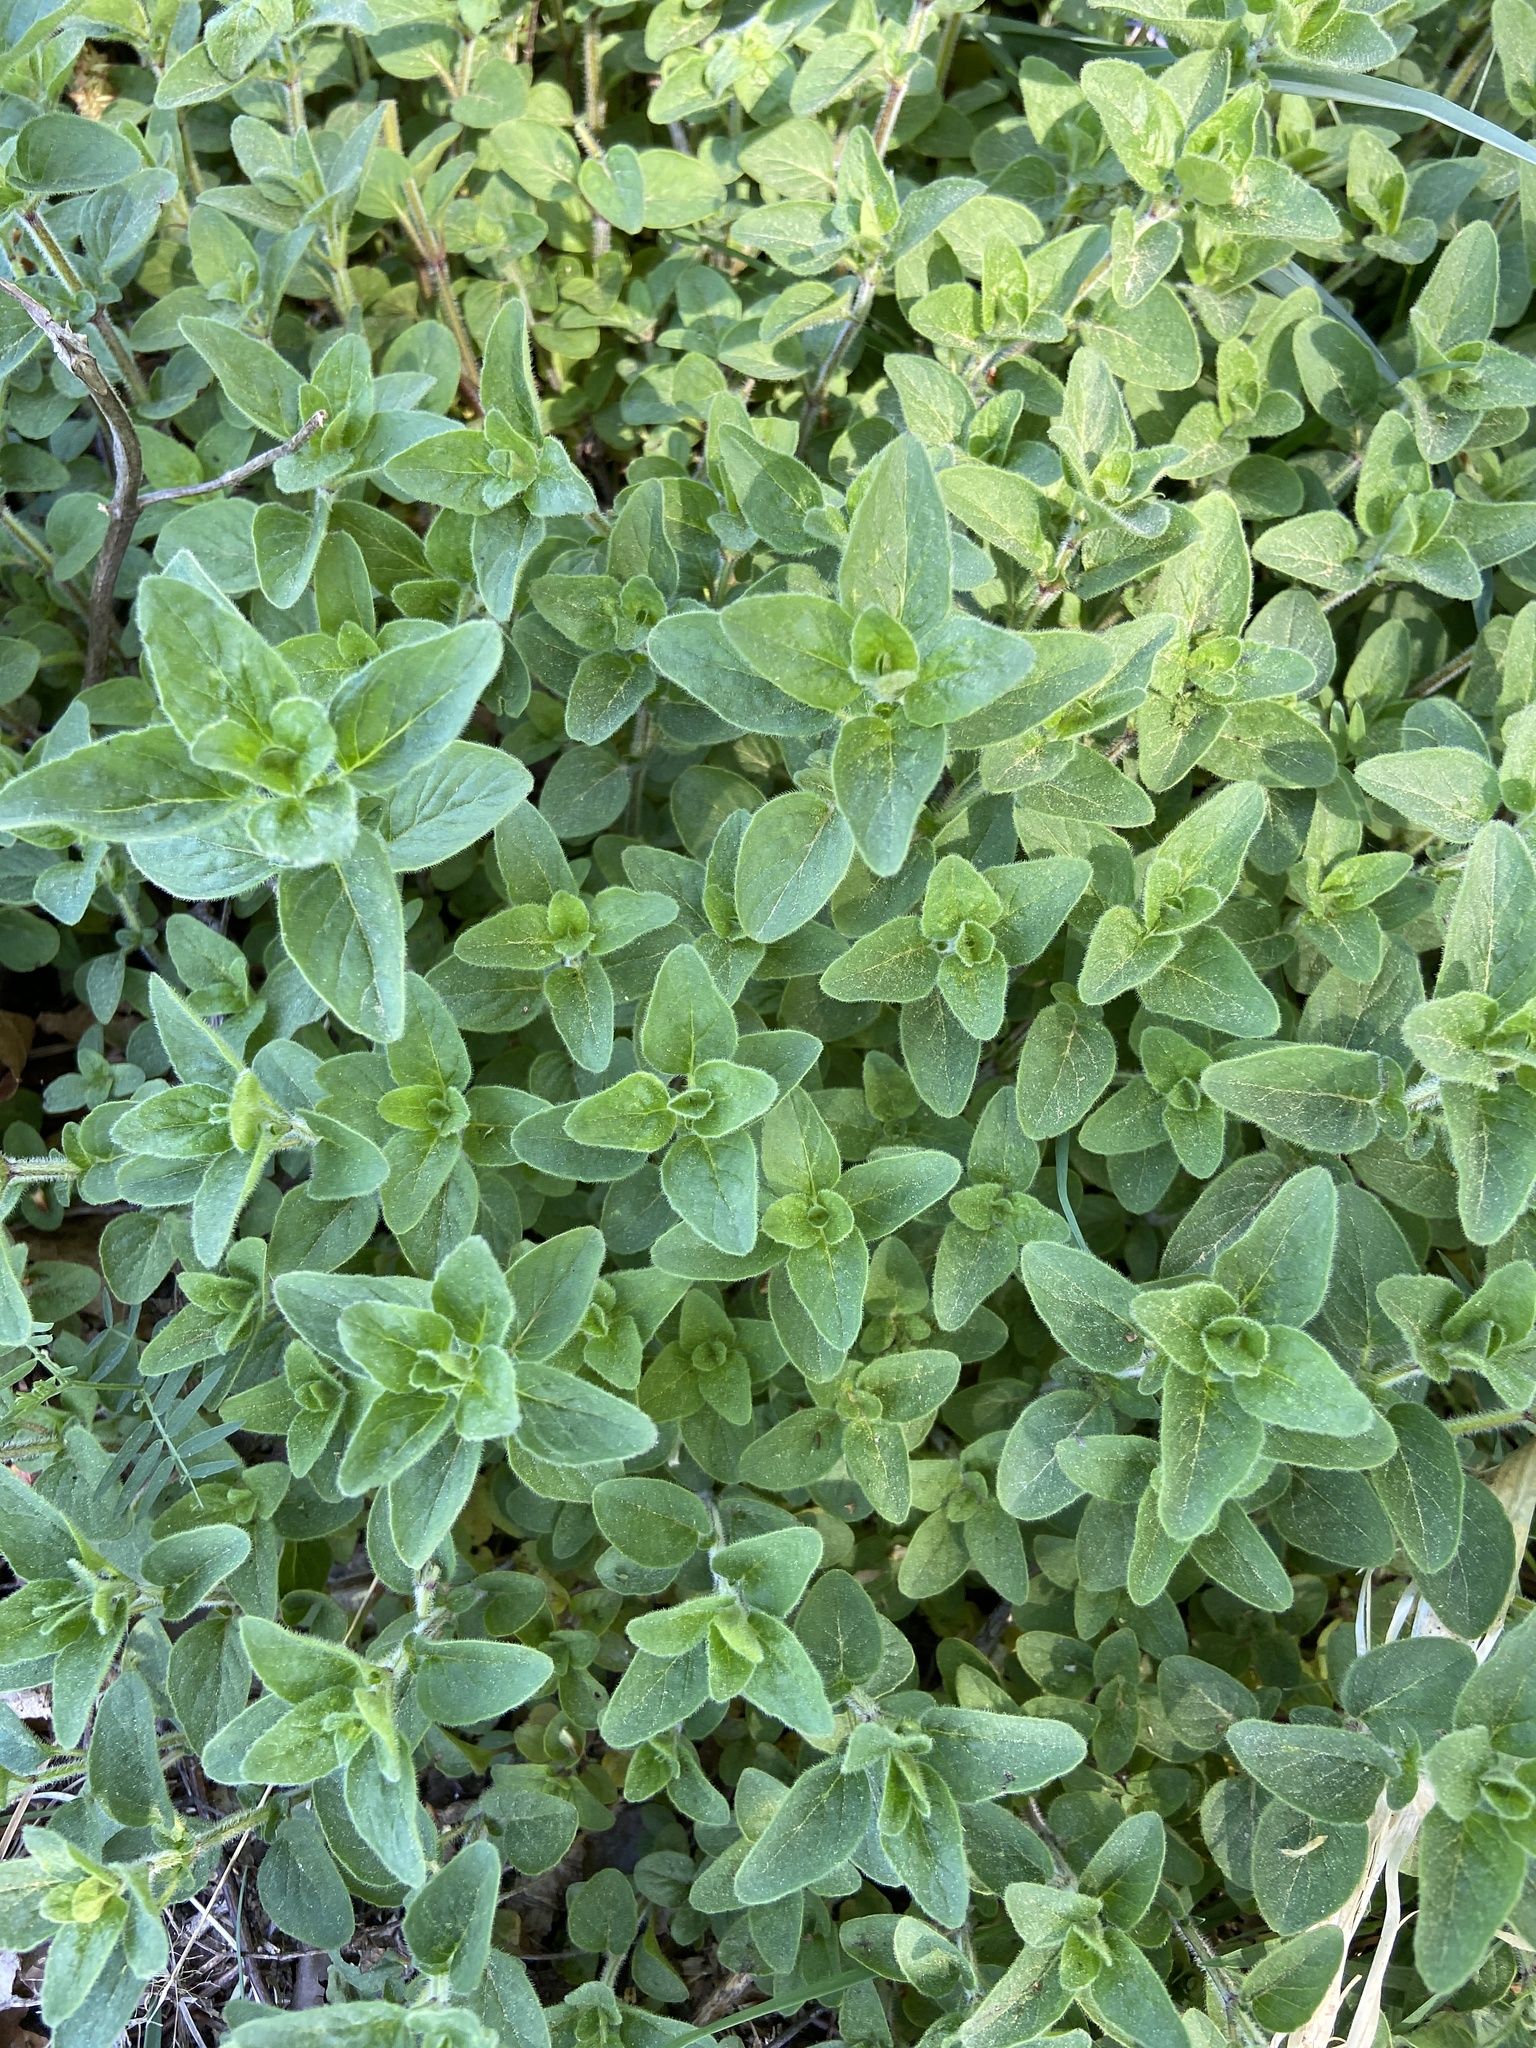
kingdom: Plantae
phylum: Tracheophyta
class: Magnoliopsida
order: Lamiales
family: Lamiaceae
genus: Origanum
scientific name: Origanum vulgare
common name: Wild marjoram
